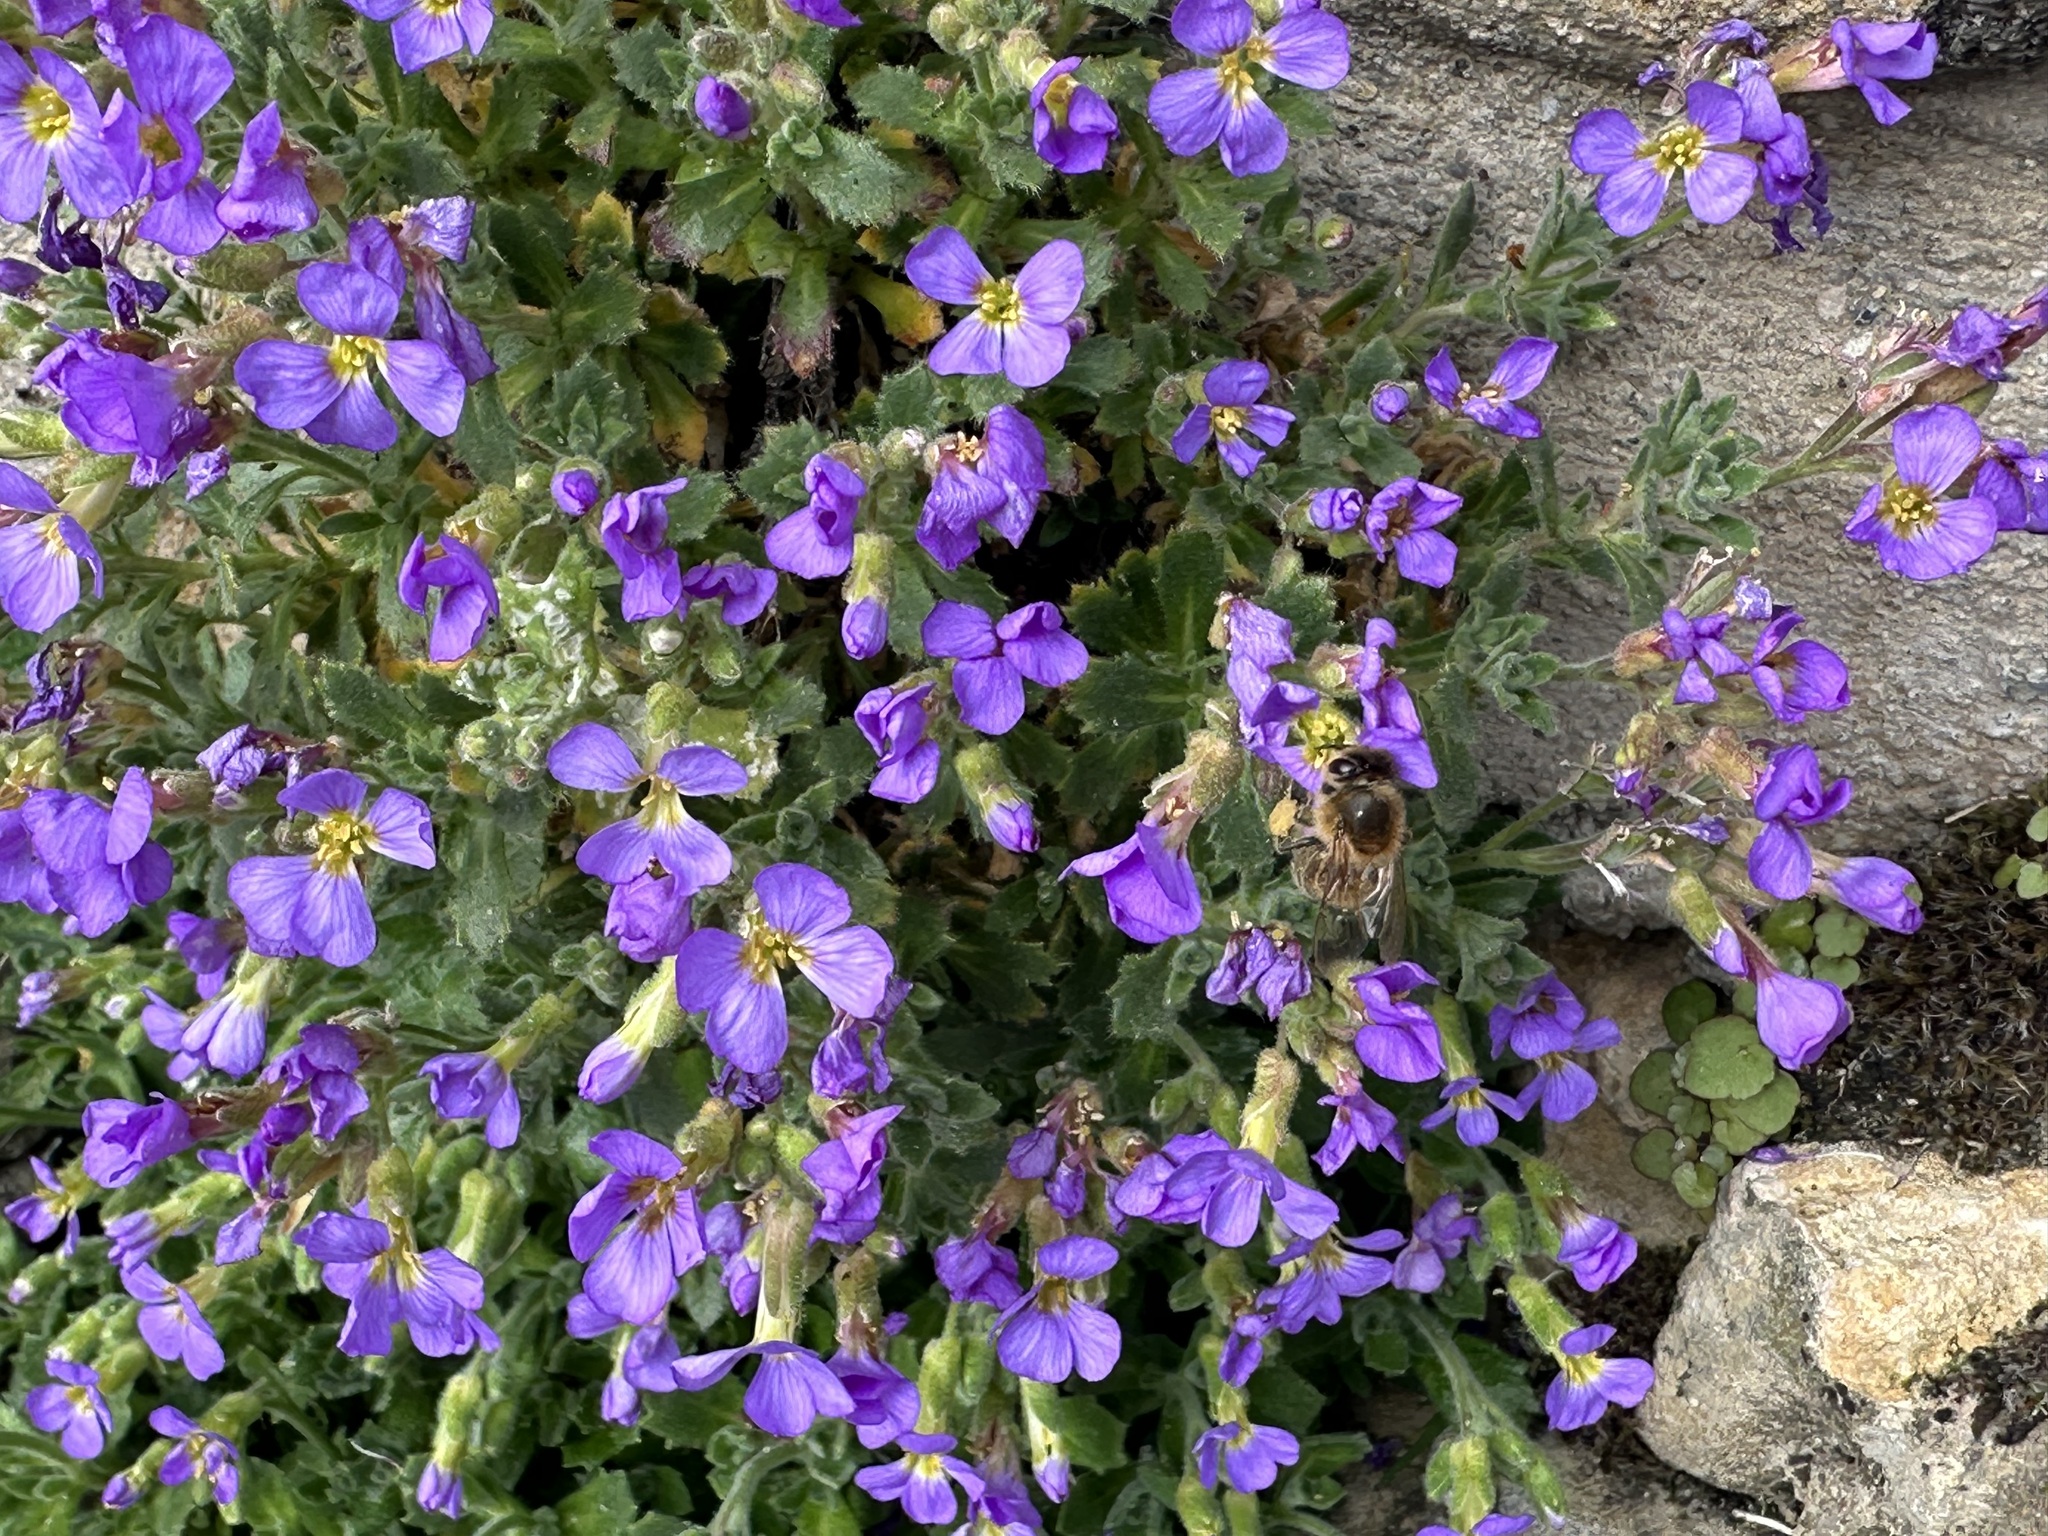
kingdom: Animalia
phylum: Arthropoda
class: Insecta
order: Hymenoptera
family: Apidae
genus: Apis
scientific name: Apis mellifera
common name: Honey bee
